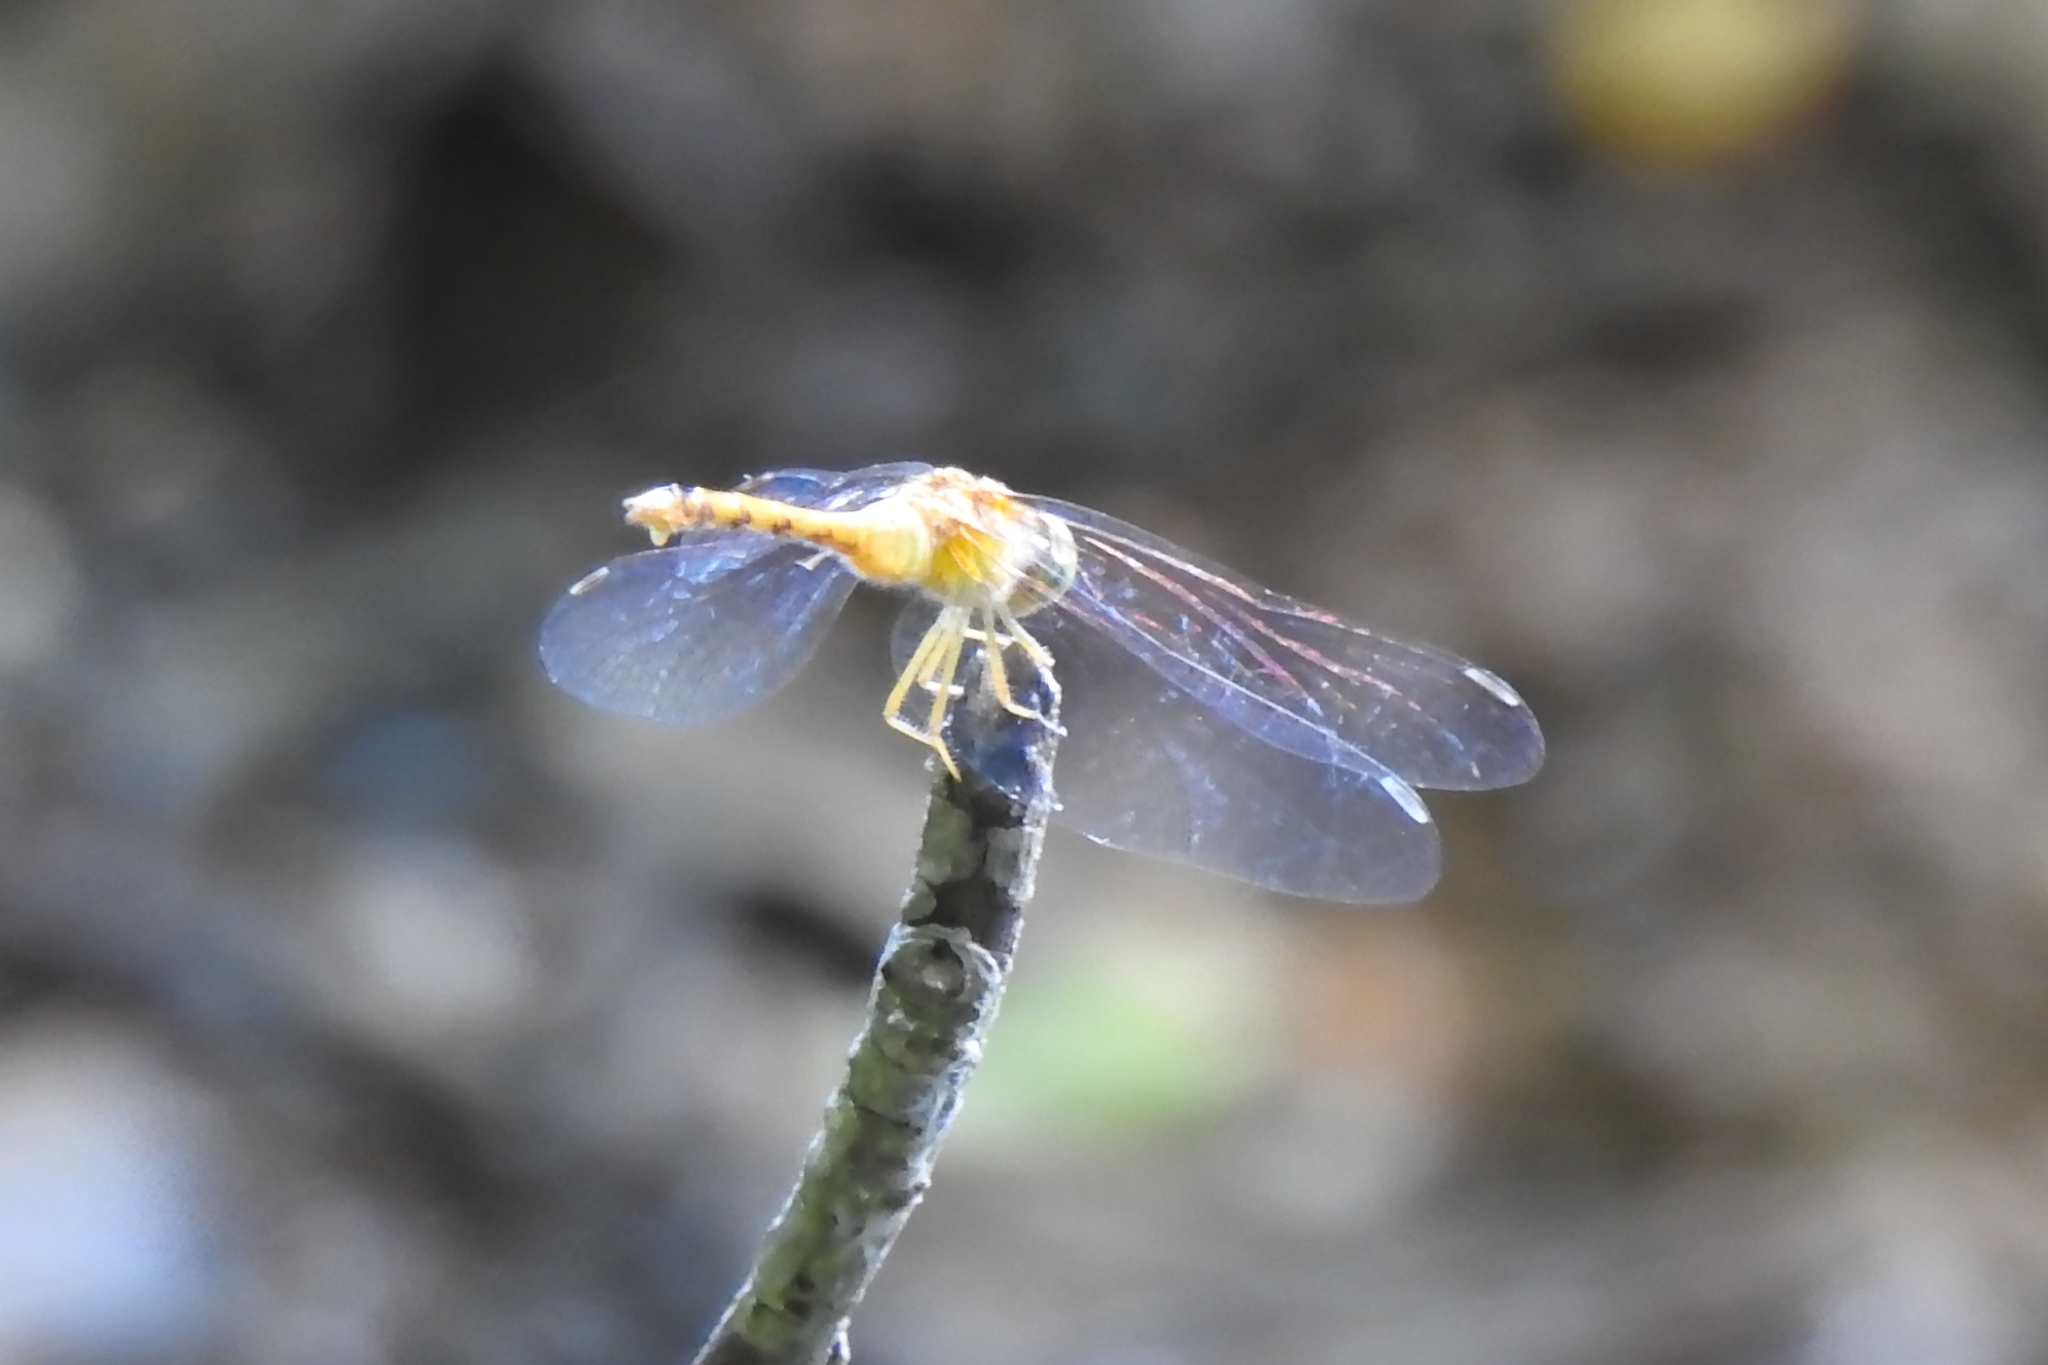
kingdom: Animalia
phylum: Arthropoda
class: Insecta
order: Odonata
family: Libellulidae
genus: Sympetrum
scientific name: Sympetrum vicinum
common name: Autumn meadowhawk
